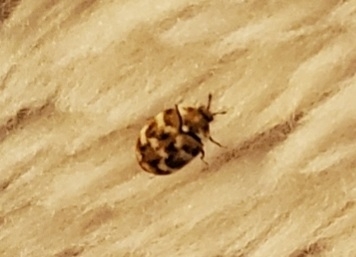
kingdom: Animalia
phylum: Arthropoda
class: Insecta
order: Coleoptera
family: Dermestidae
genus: Anthrenus
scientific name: Anthrenus verbasci
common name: Varied carpet beetle
